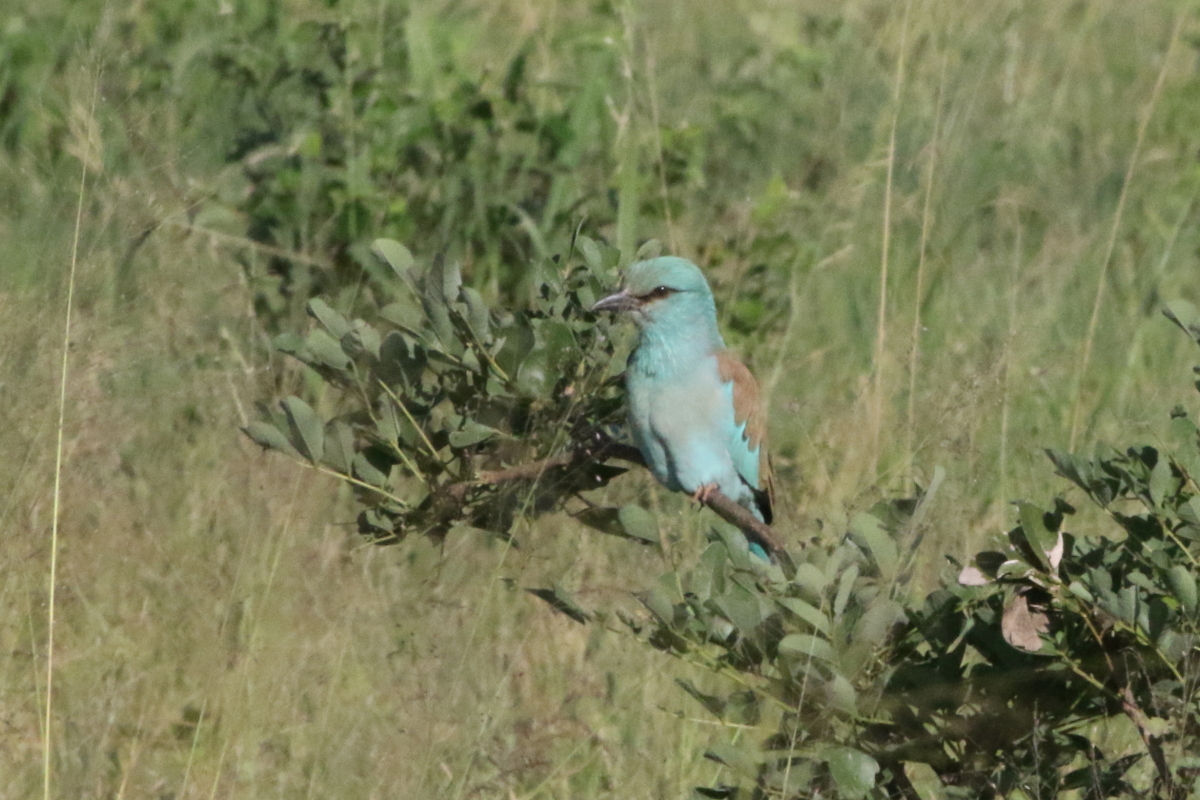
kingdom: Animalia
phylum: Chordata
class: Aves
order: Coraciiformes
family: Coraciidae
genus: Coracias
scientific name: Coracias garrulus
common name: European roller
